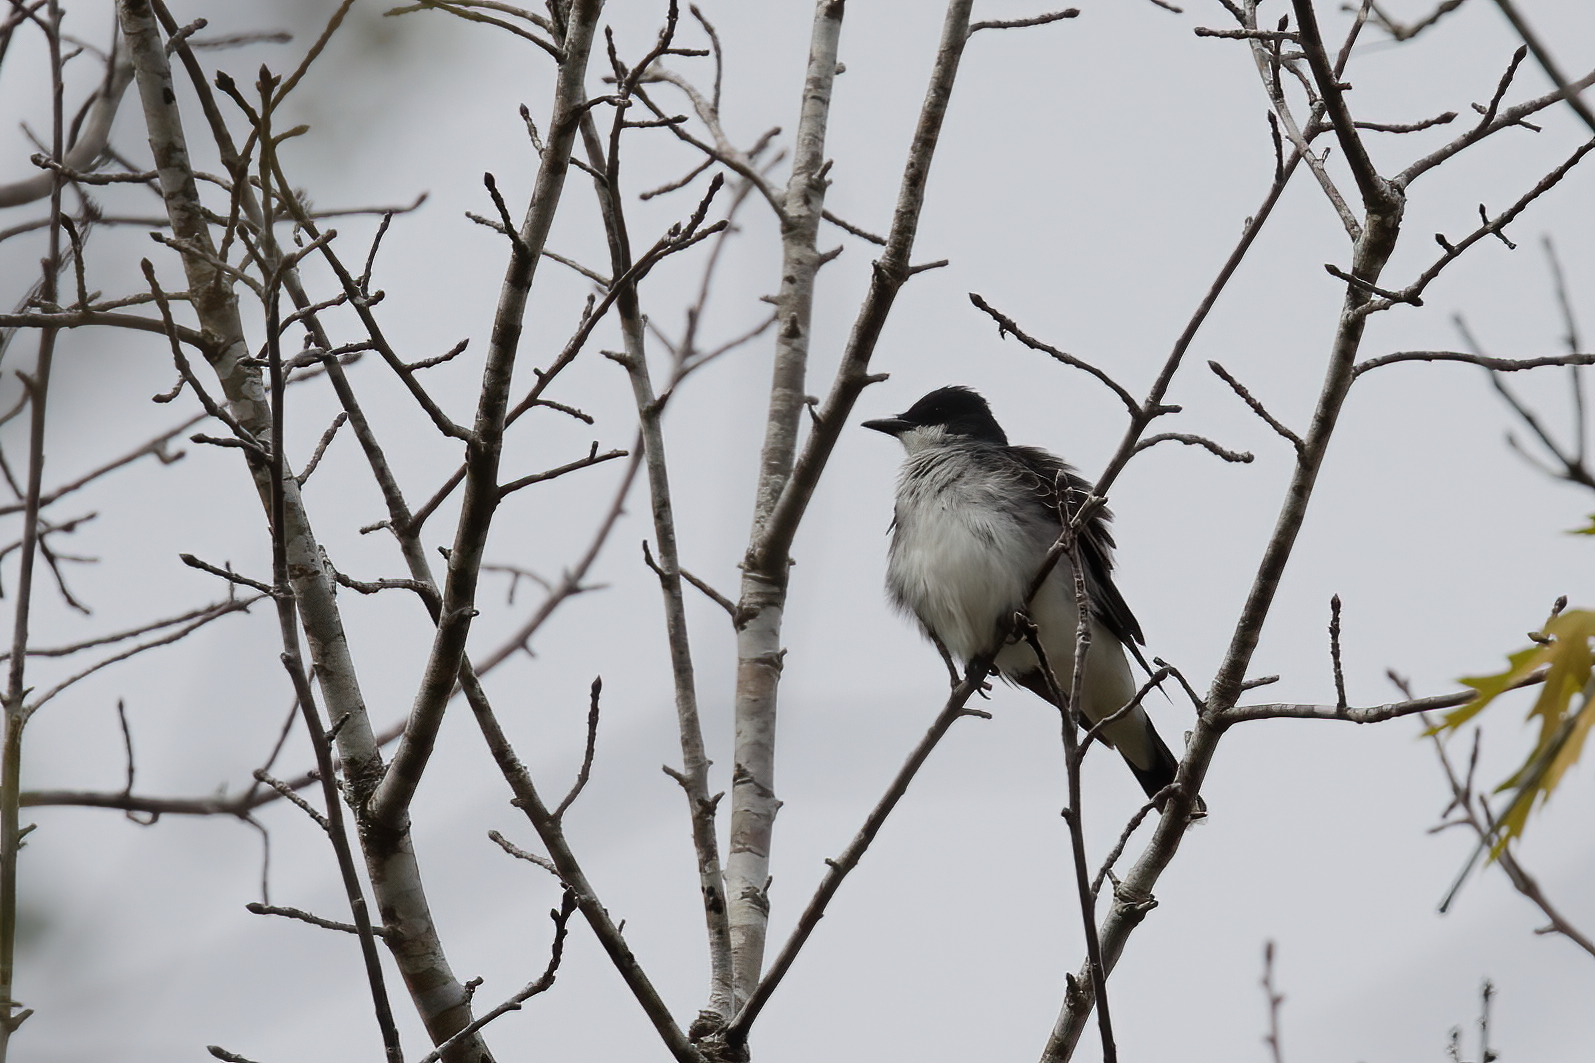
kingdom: Animalia
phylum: Chordata
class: Aves
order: Passeriformes
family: Tyrannidae
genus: Tyrannus
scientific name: Tyrannus tyrannus
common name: Eastern kingbird
